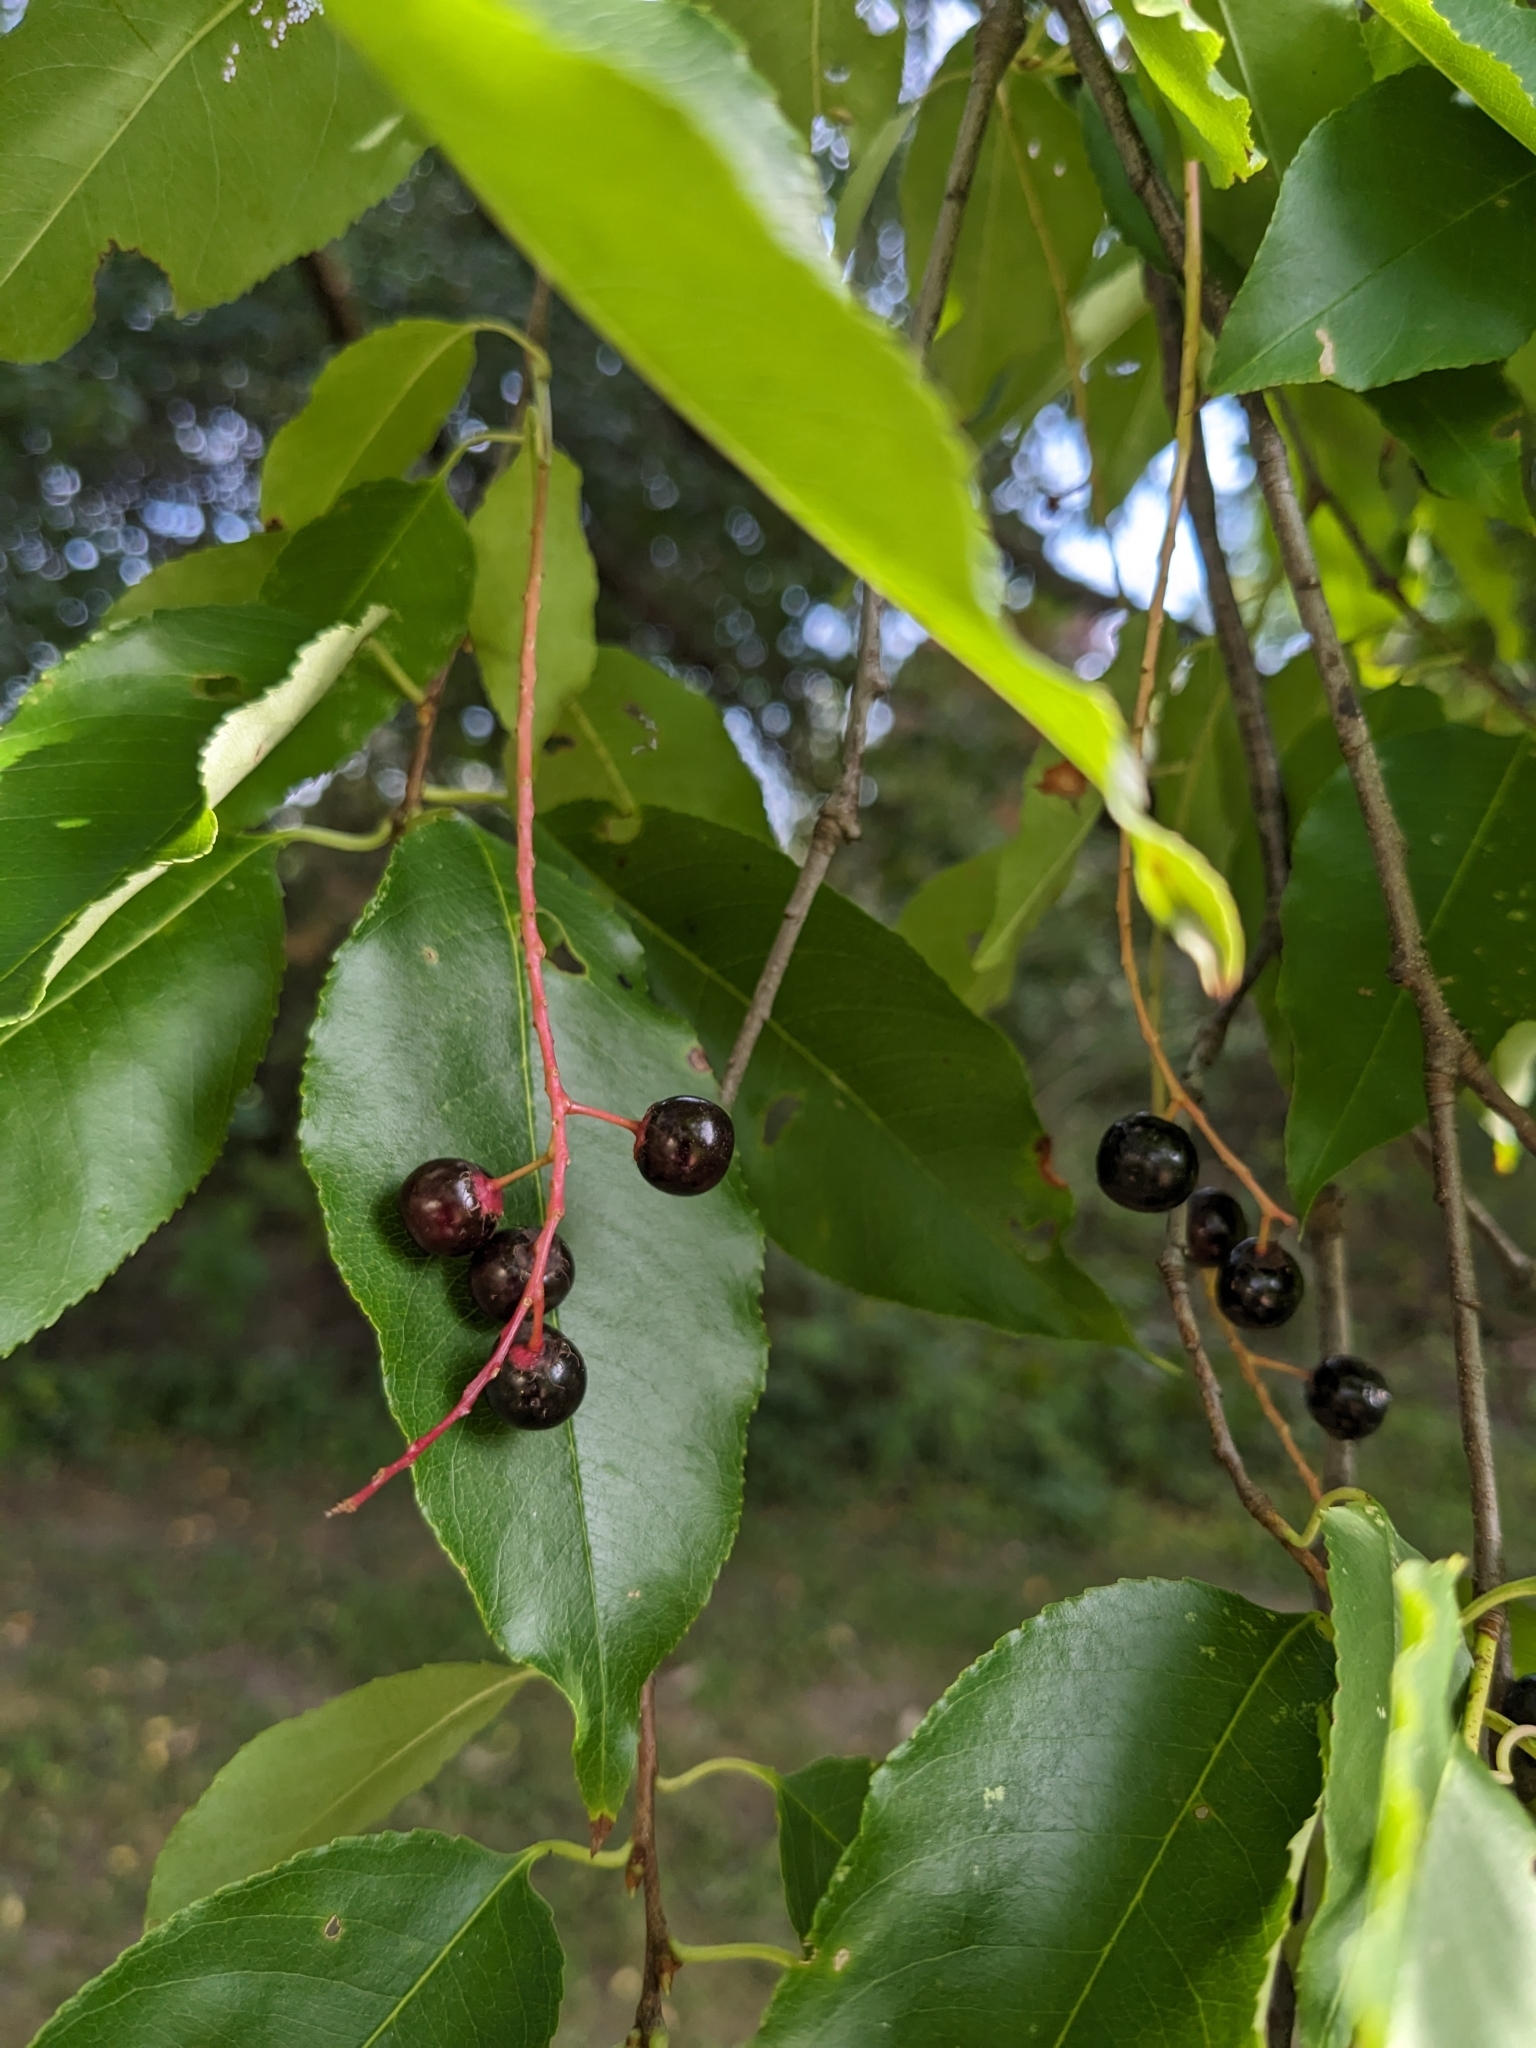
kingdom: Plantae
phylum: Tracheophyta
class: Magnoliopsida
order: Rosales
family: Rosaceae
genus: Prunus
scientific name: Prunus serotina
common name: Black cherry
